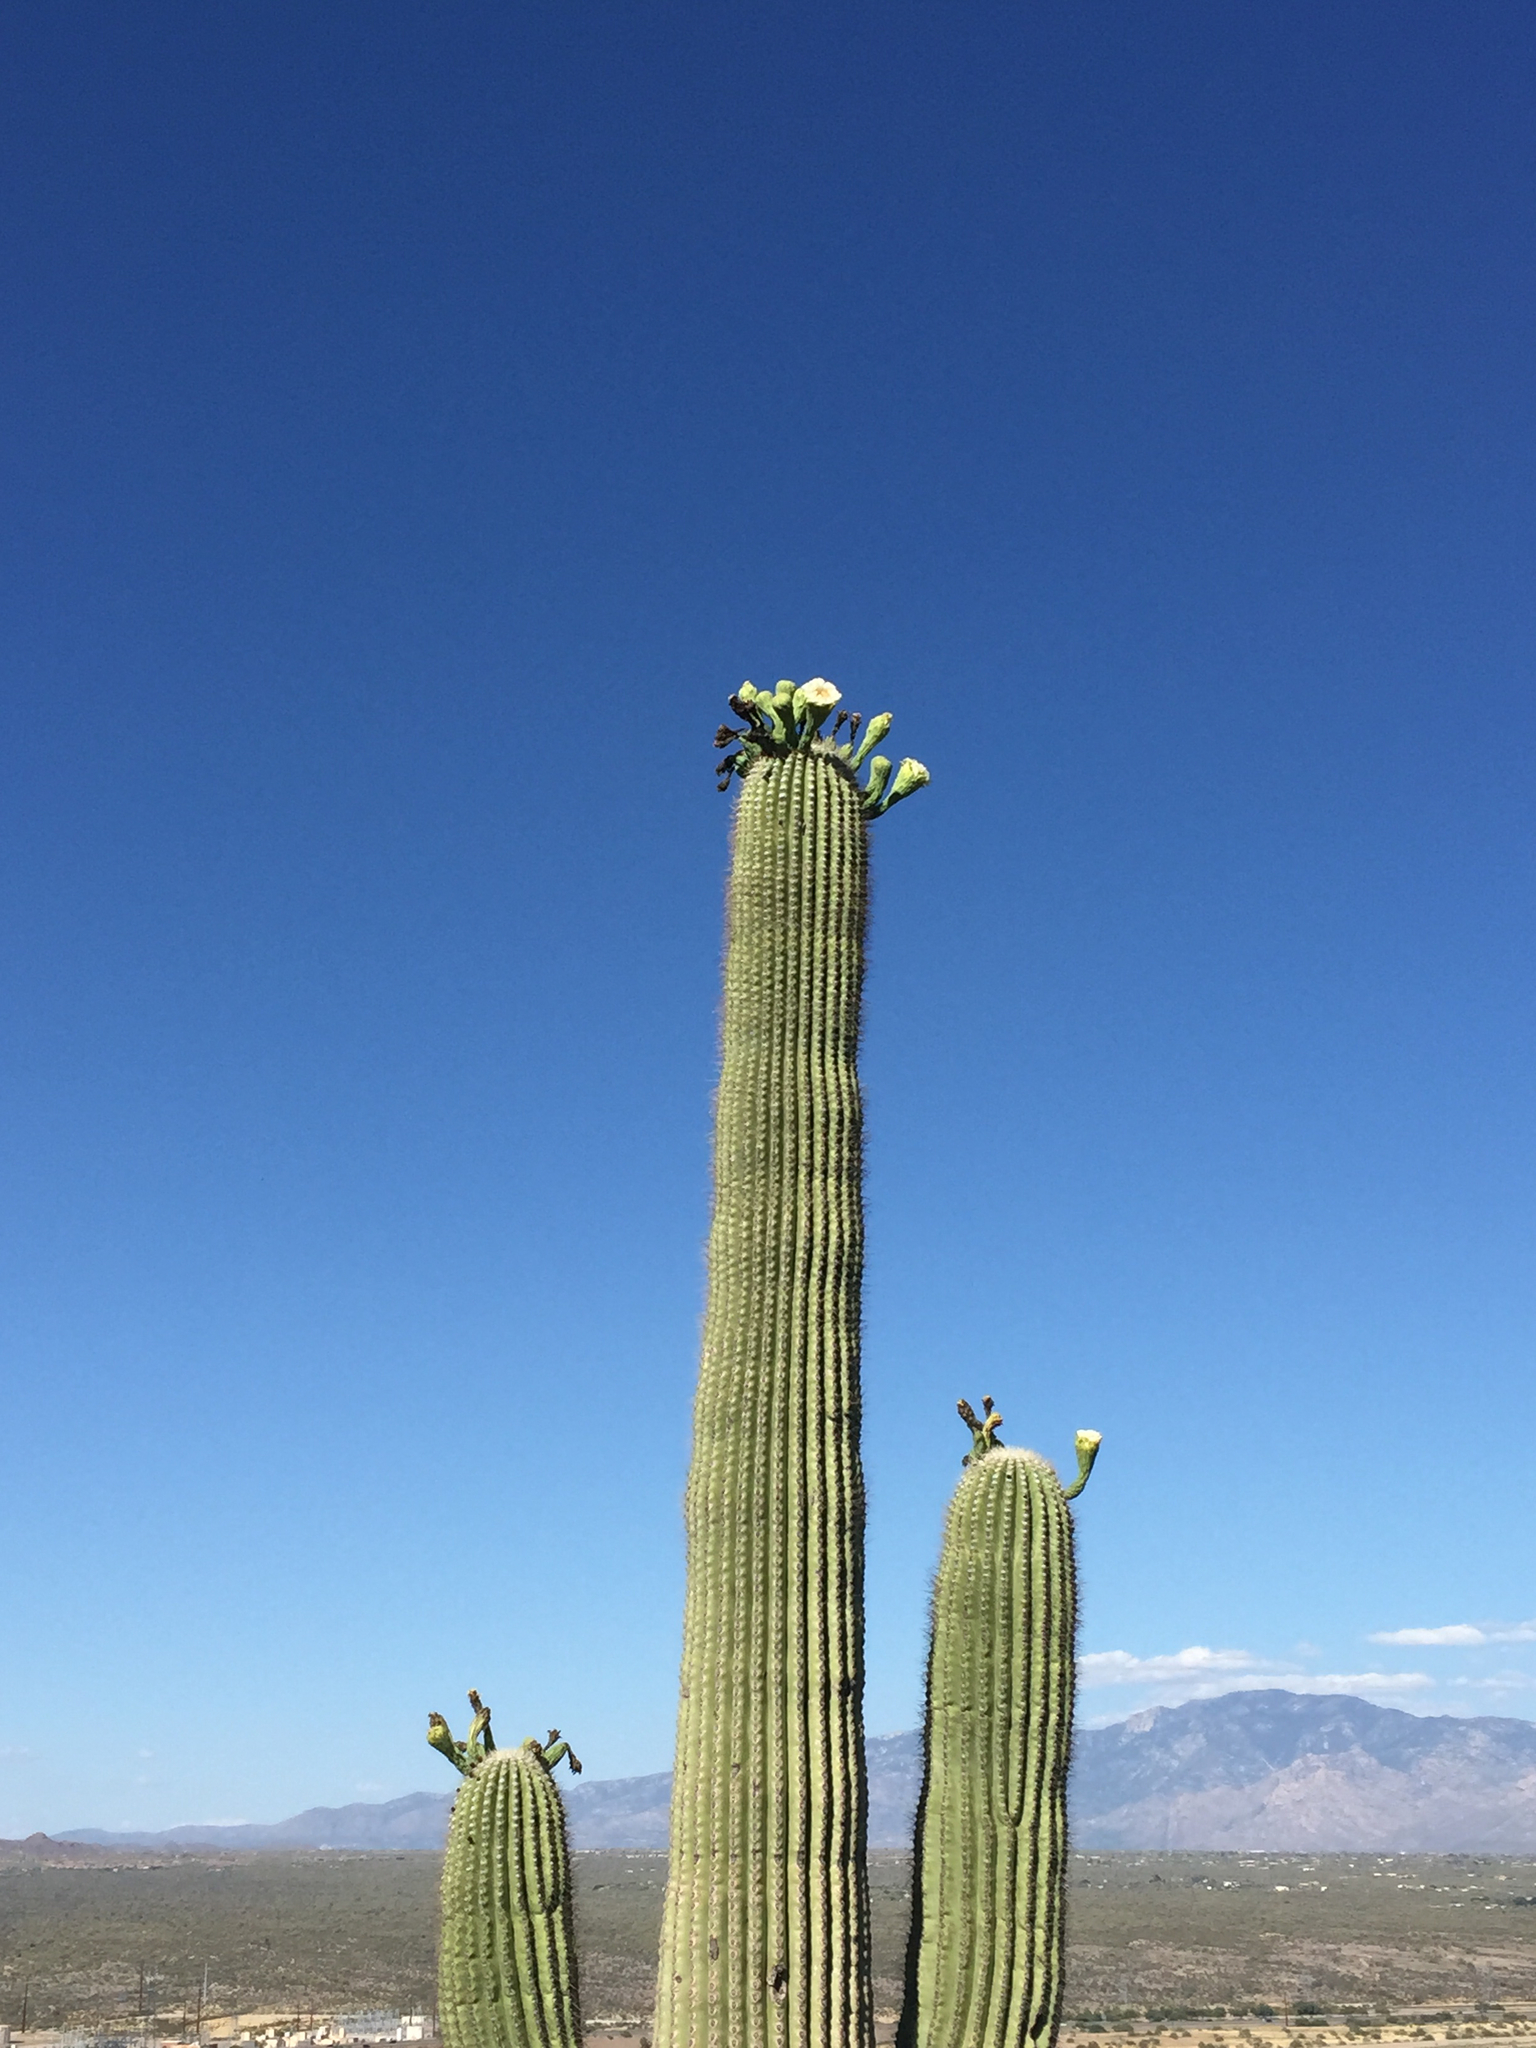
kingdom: Plantae
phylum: Tracheophyta
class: Magnoliopsida
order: Caryophyllales
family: Cactaceae
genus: Carnegiea
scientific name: Carnegiea gigantea
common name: Saguaro
